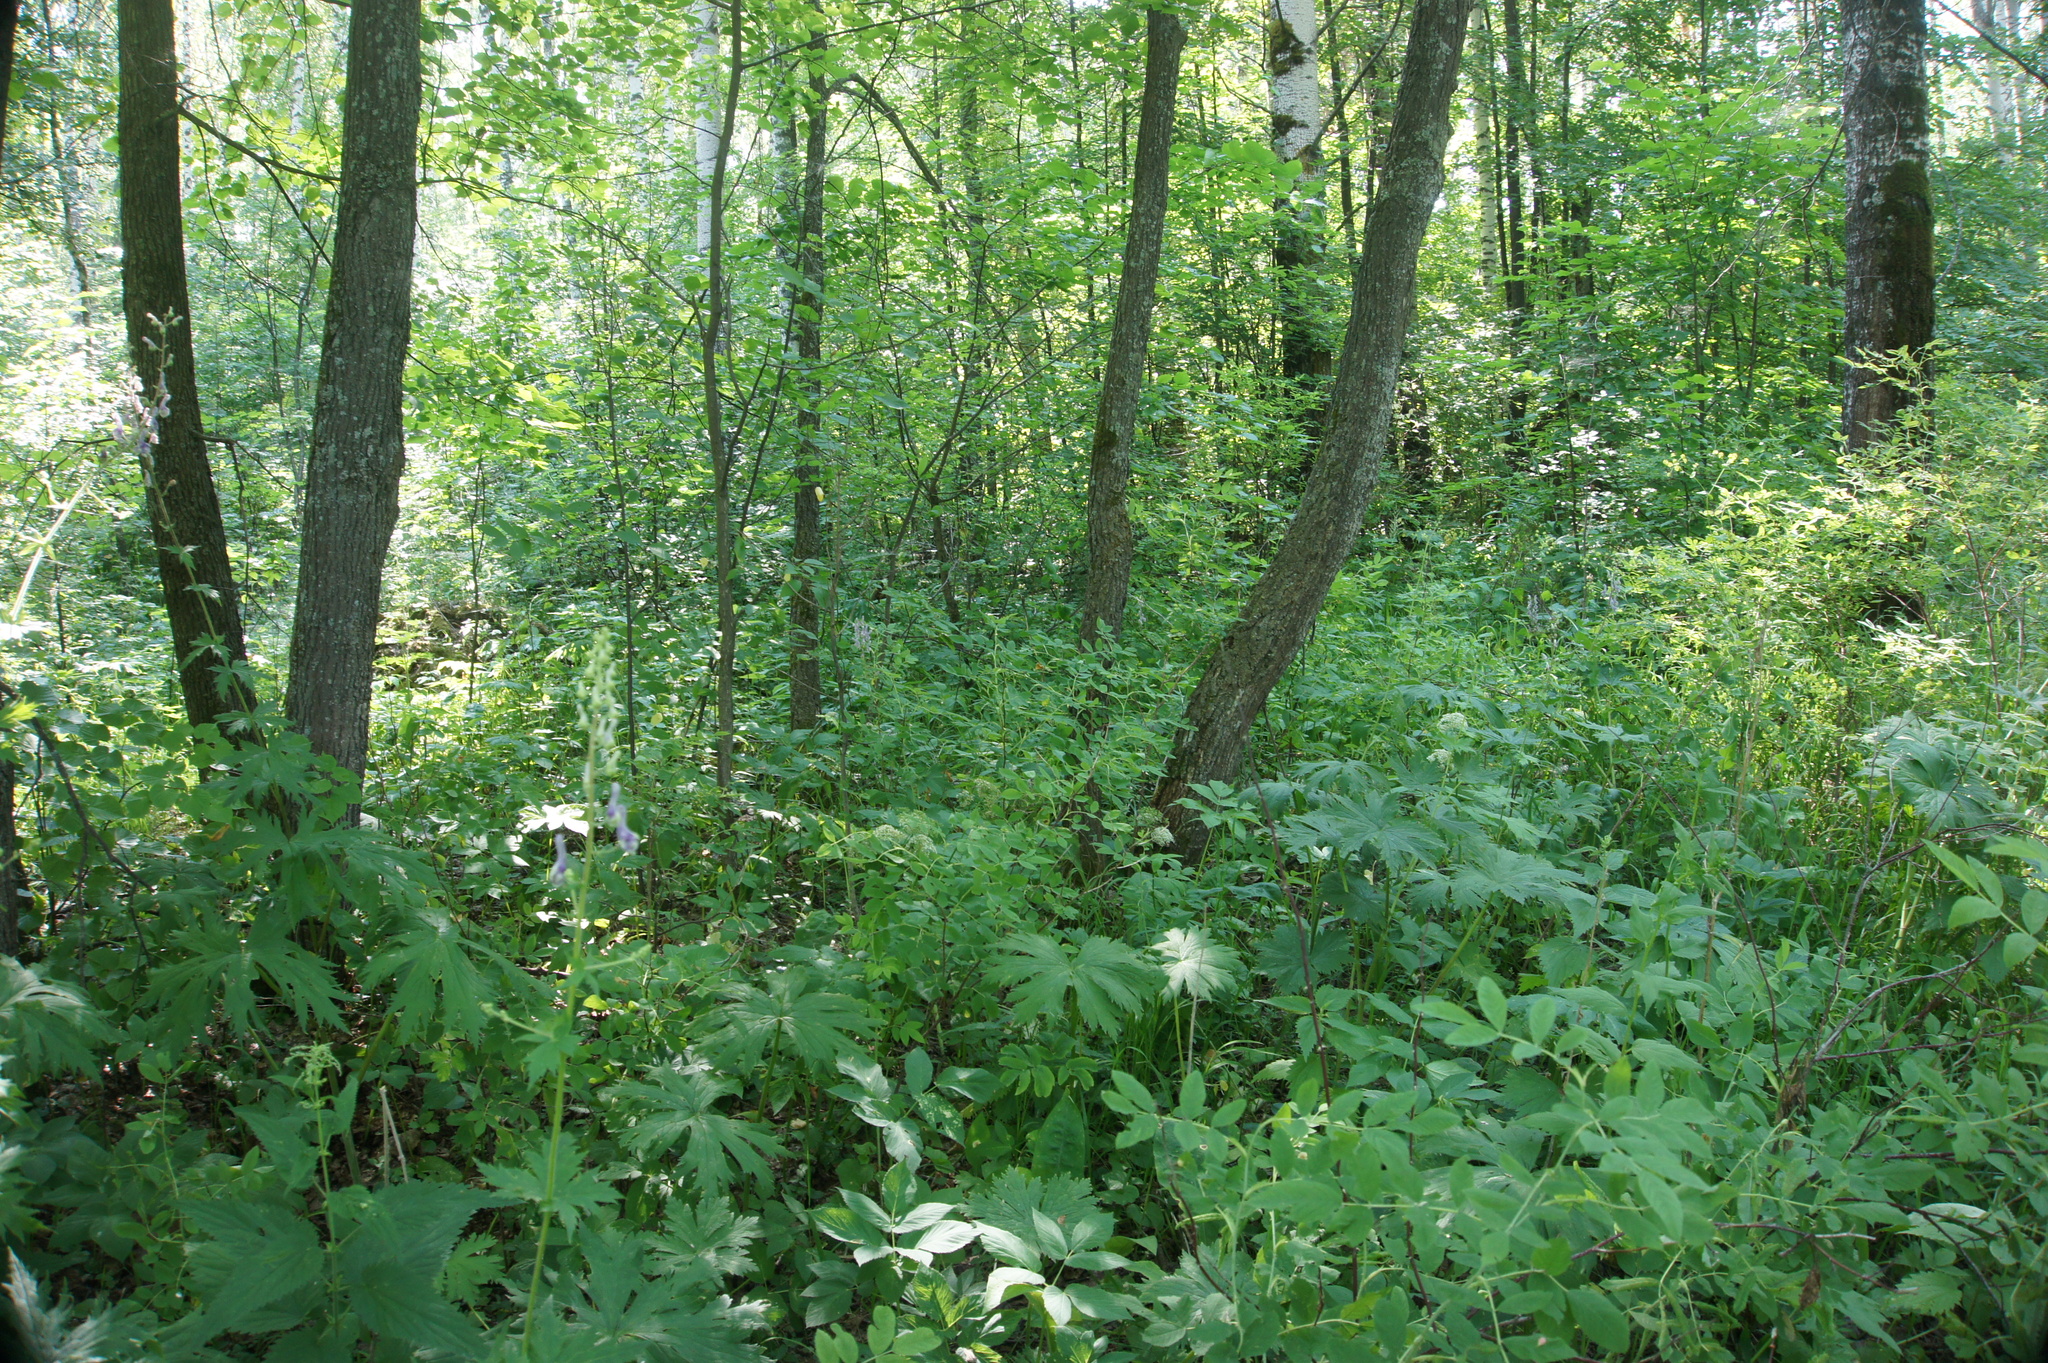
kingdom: Plantae
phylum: Tracheophyta
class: Magnoliopsida
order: Ranunculales
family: Ranunculaceae
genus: Aconitum
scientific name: Aconitum septentrionale
